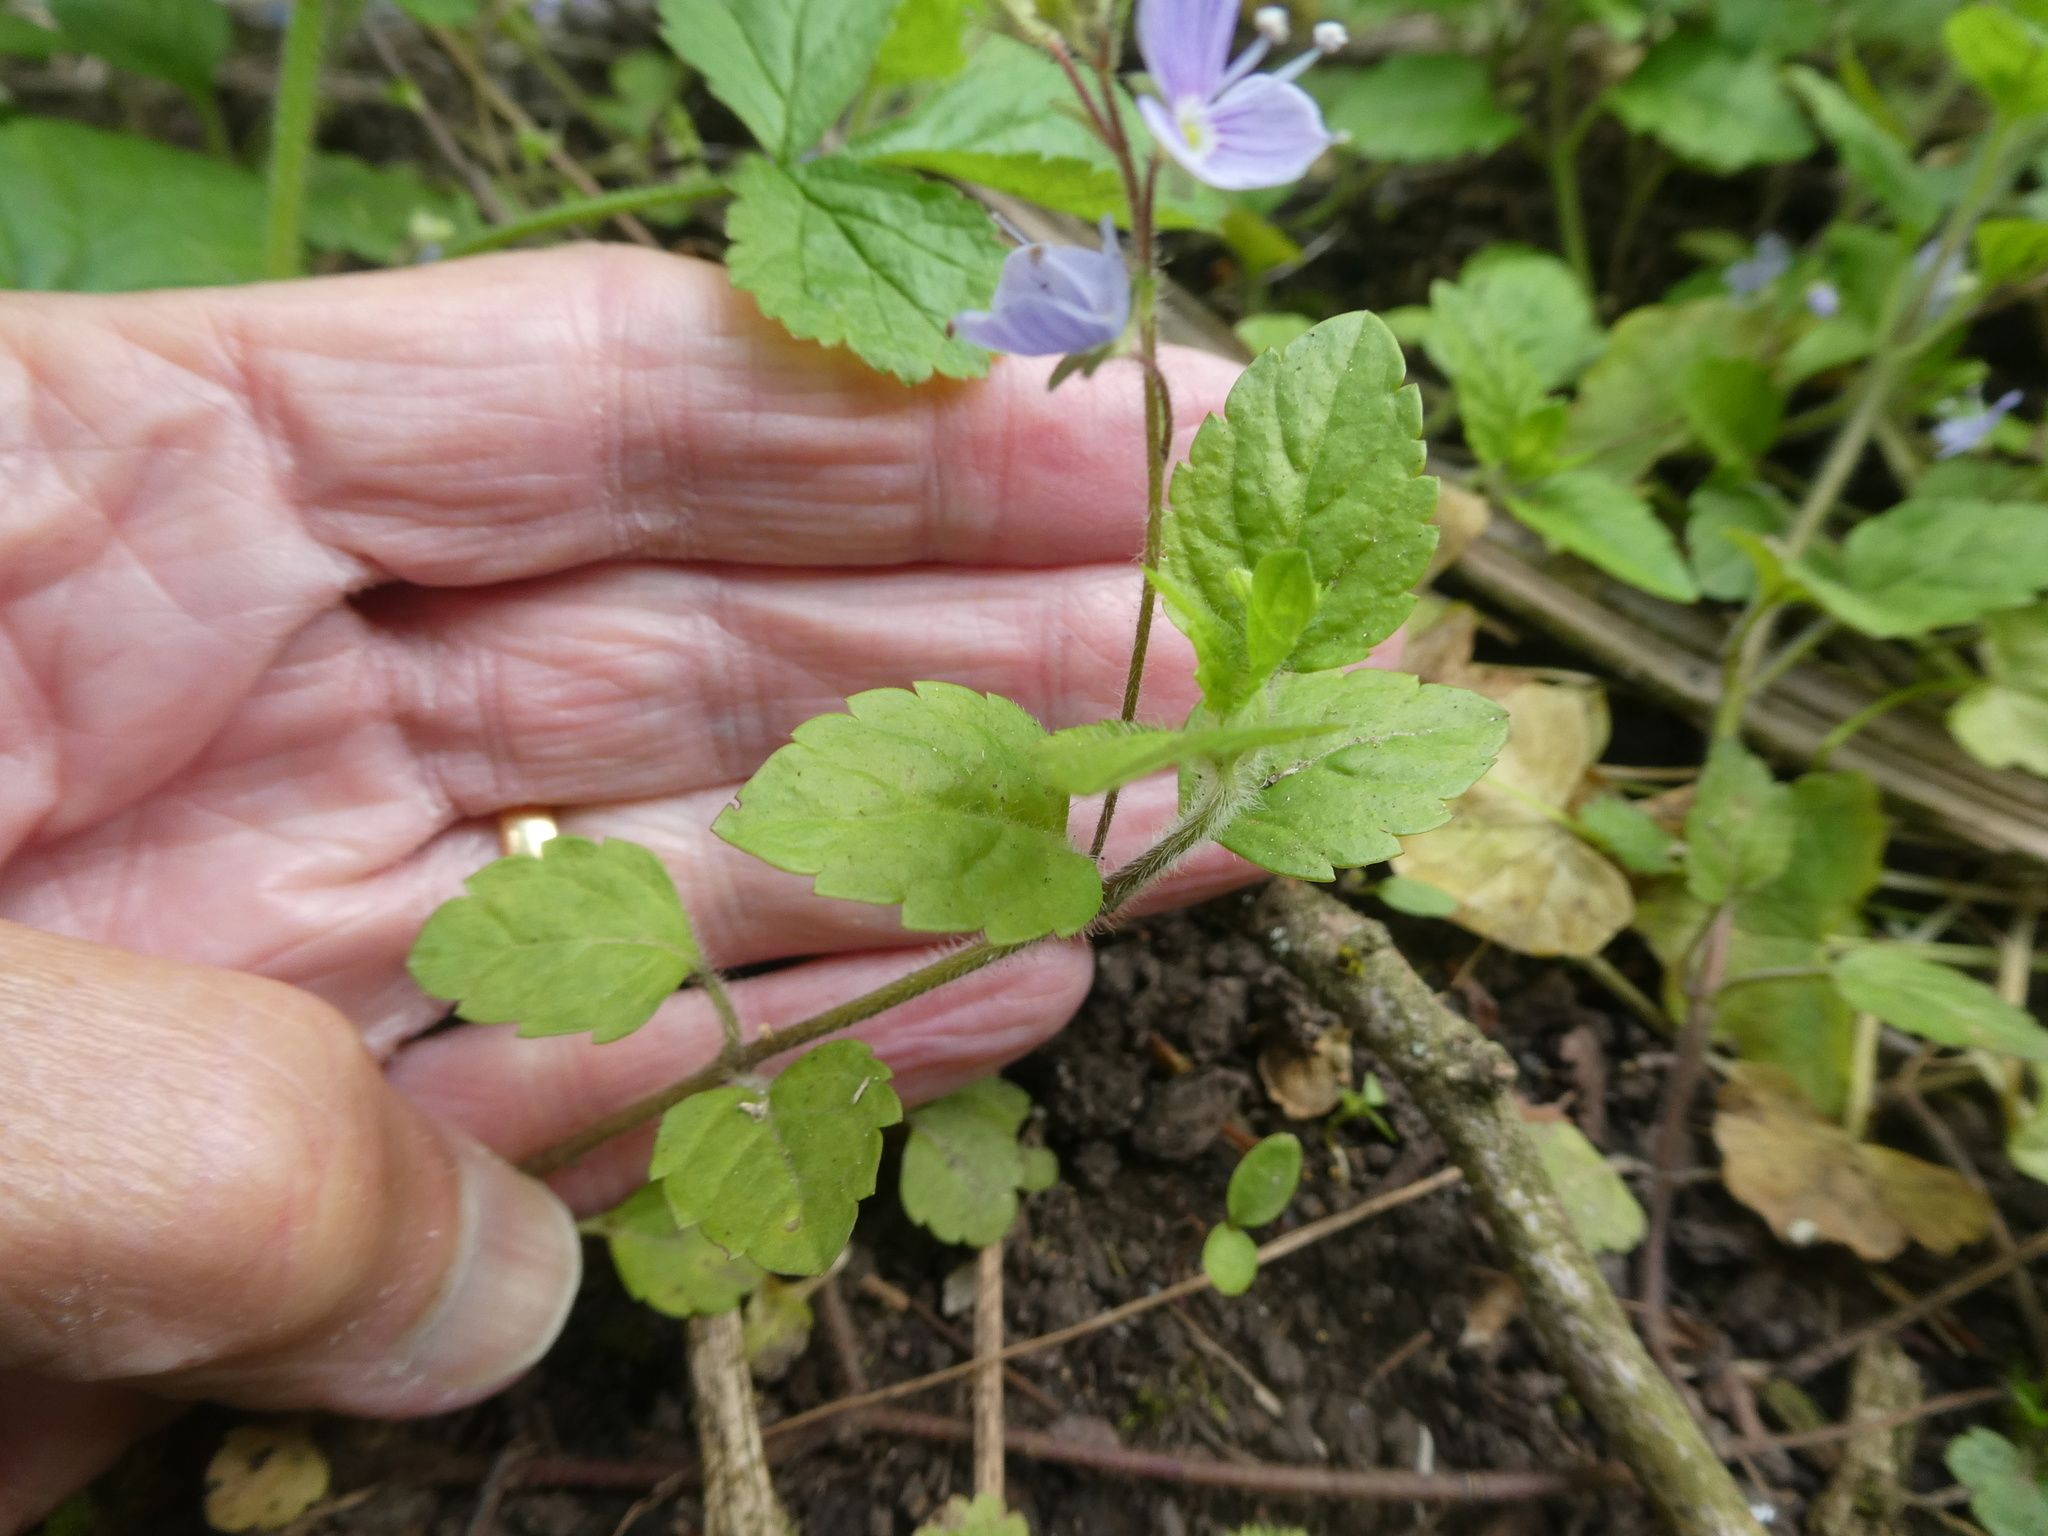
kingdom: Plantae
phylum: Tracheophyta
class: Magnoliopsida
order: Lamiales
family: Plantaginaceae
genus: Veronica
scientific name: Veronica montana
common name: Wood speedwell
